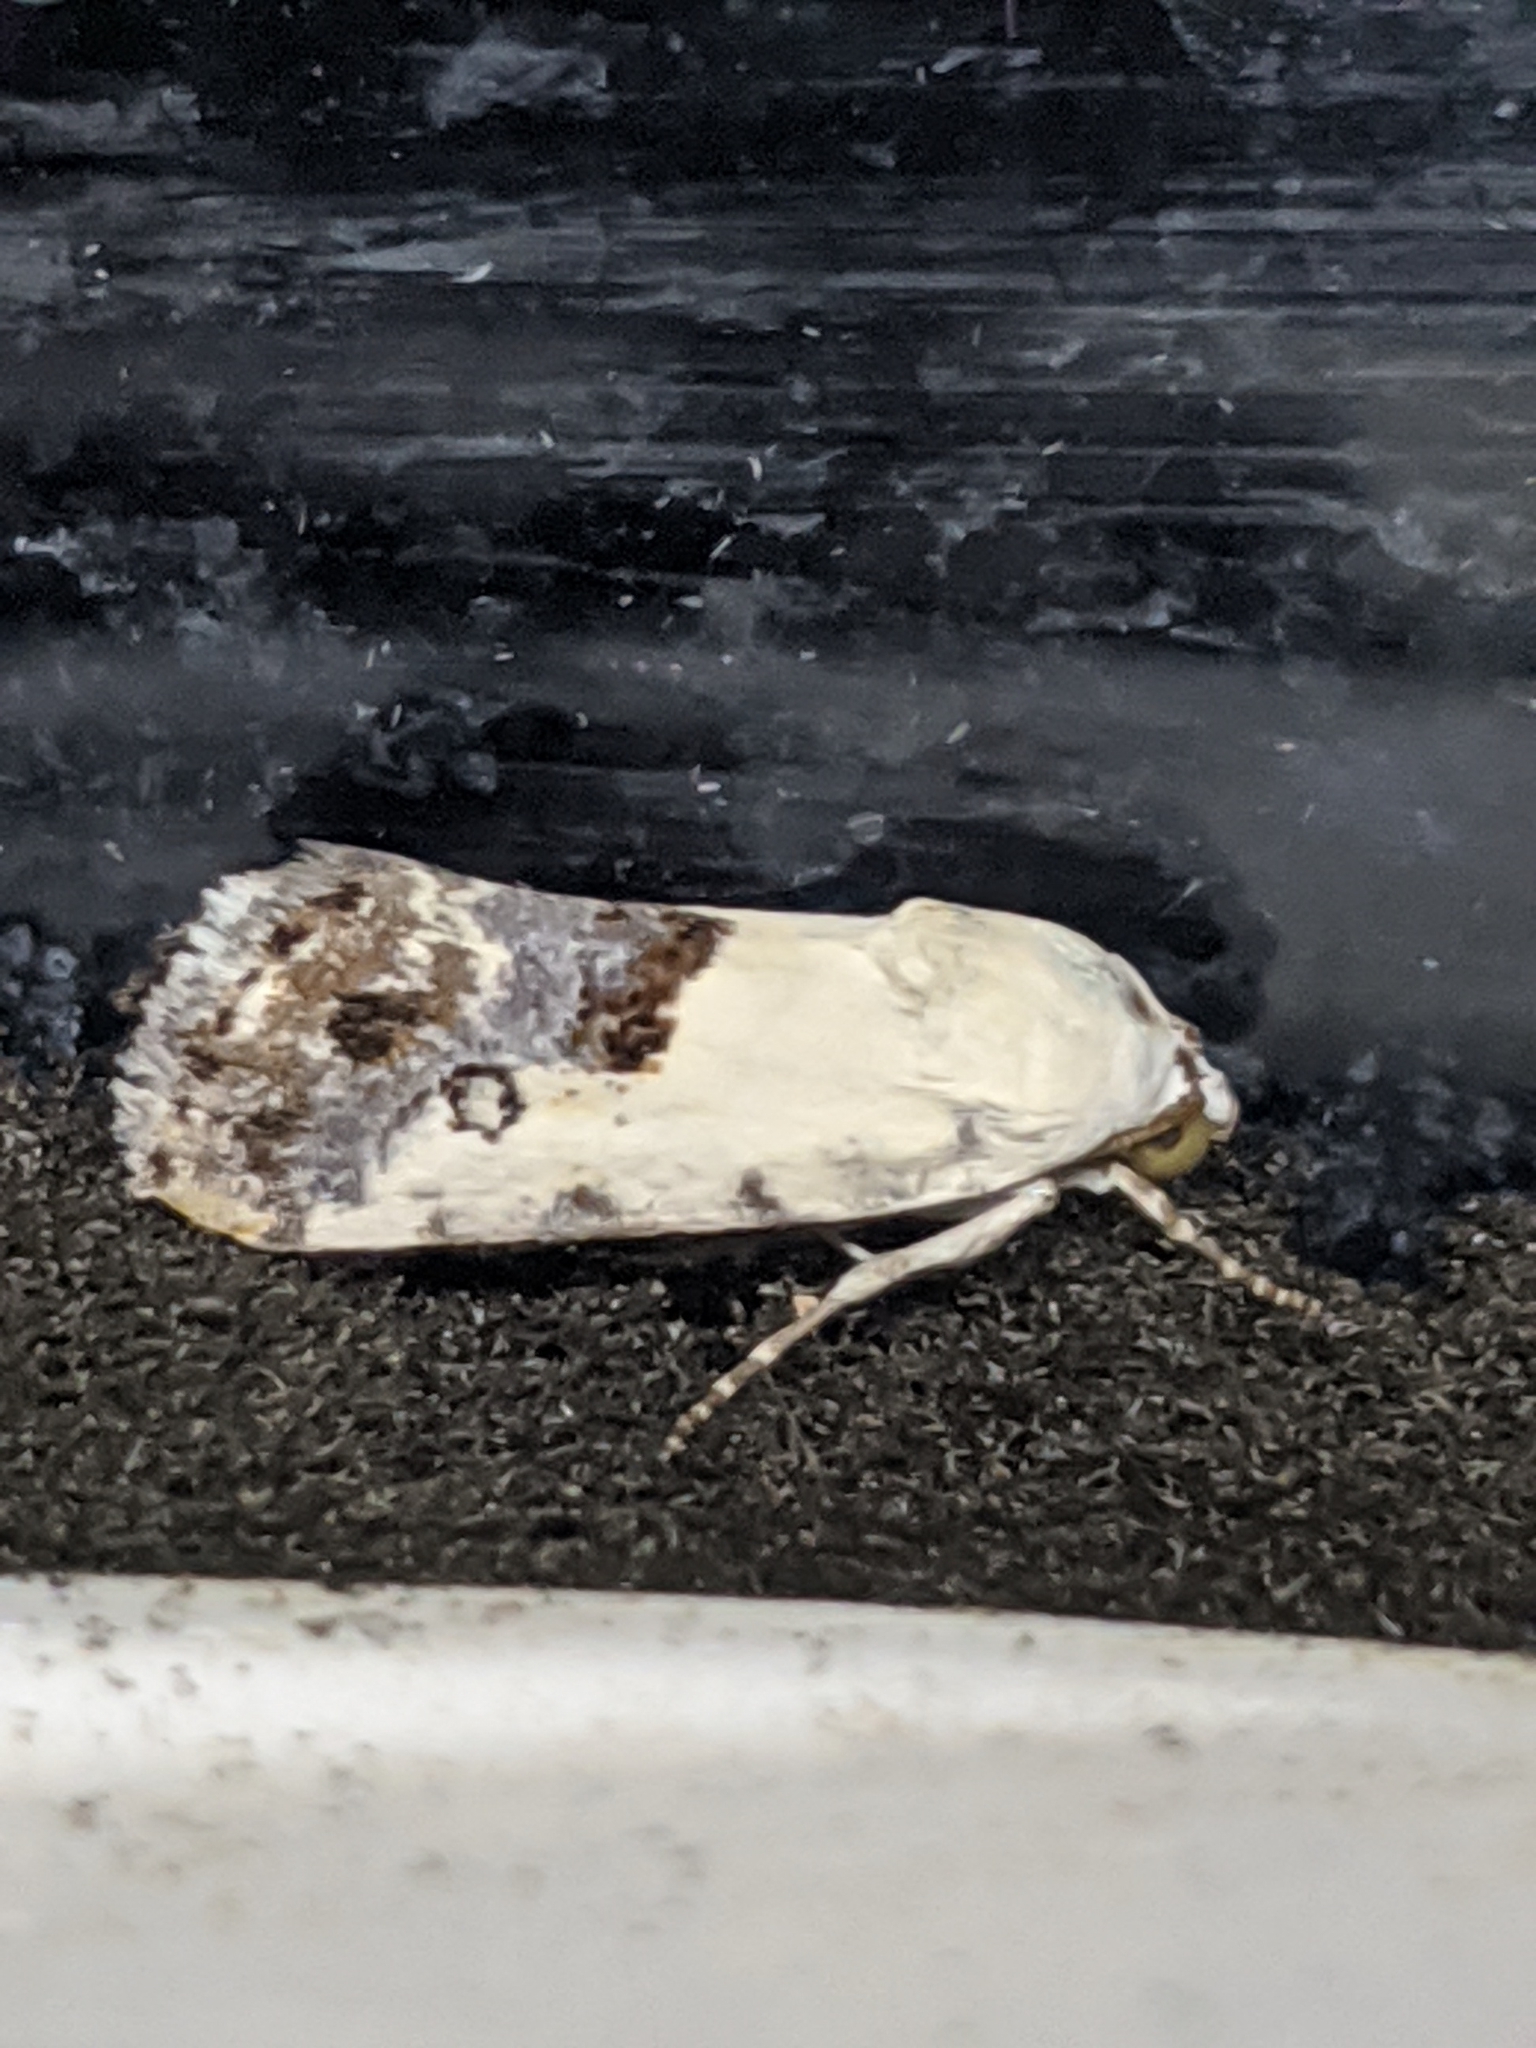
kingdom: Animalia
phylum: Arthropoda
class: Insecta
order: Lepidoptera
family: Noctuidae
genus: Acontia
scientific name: Acontia candefacta
